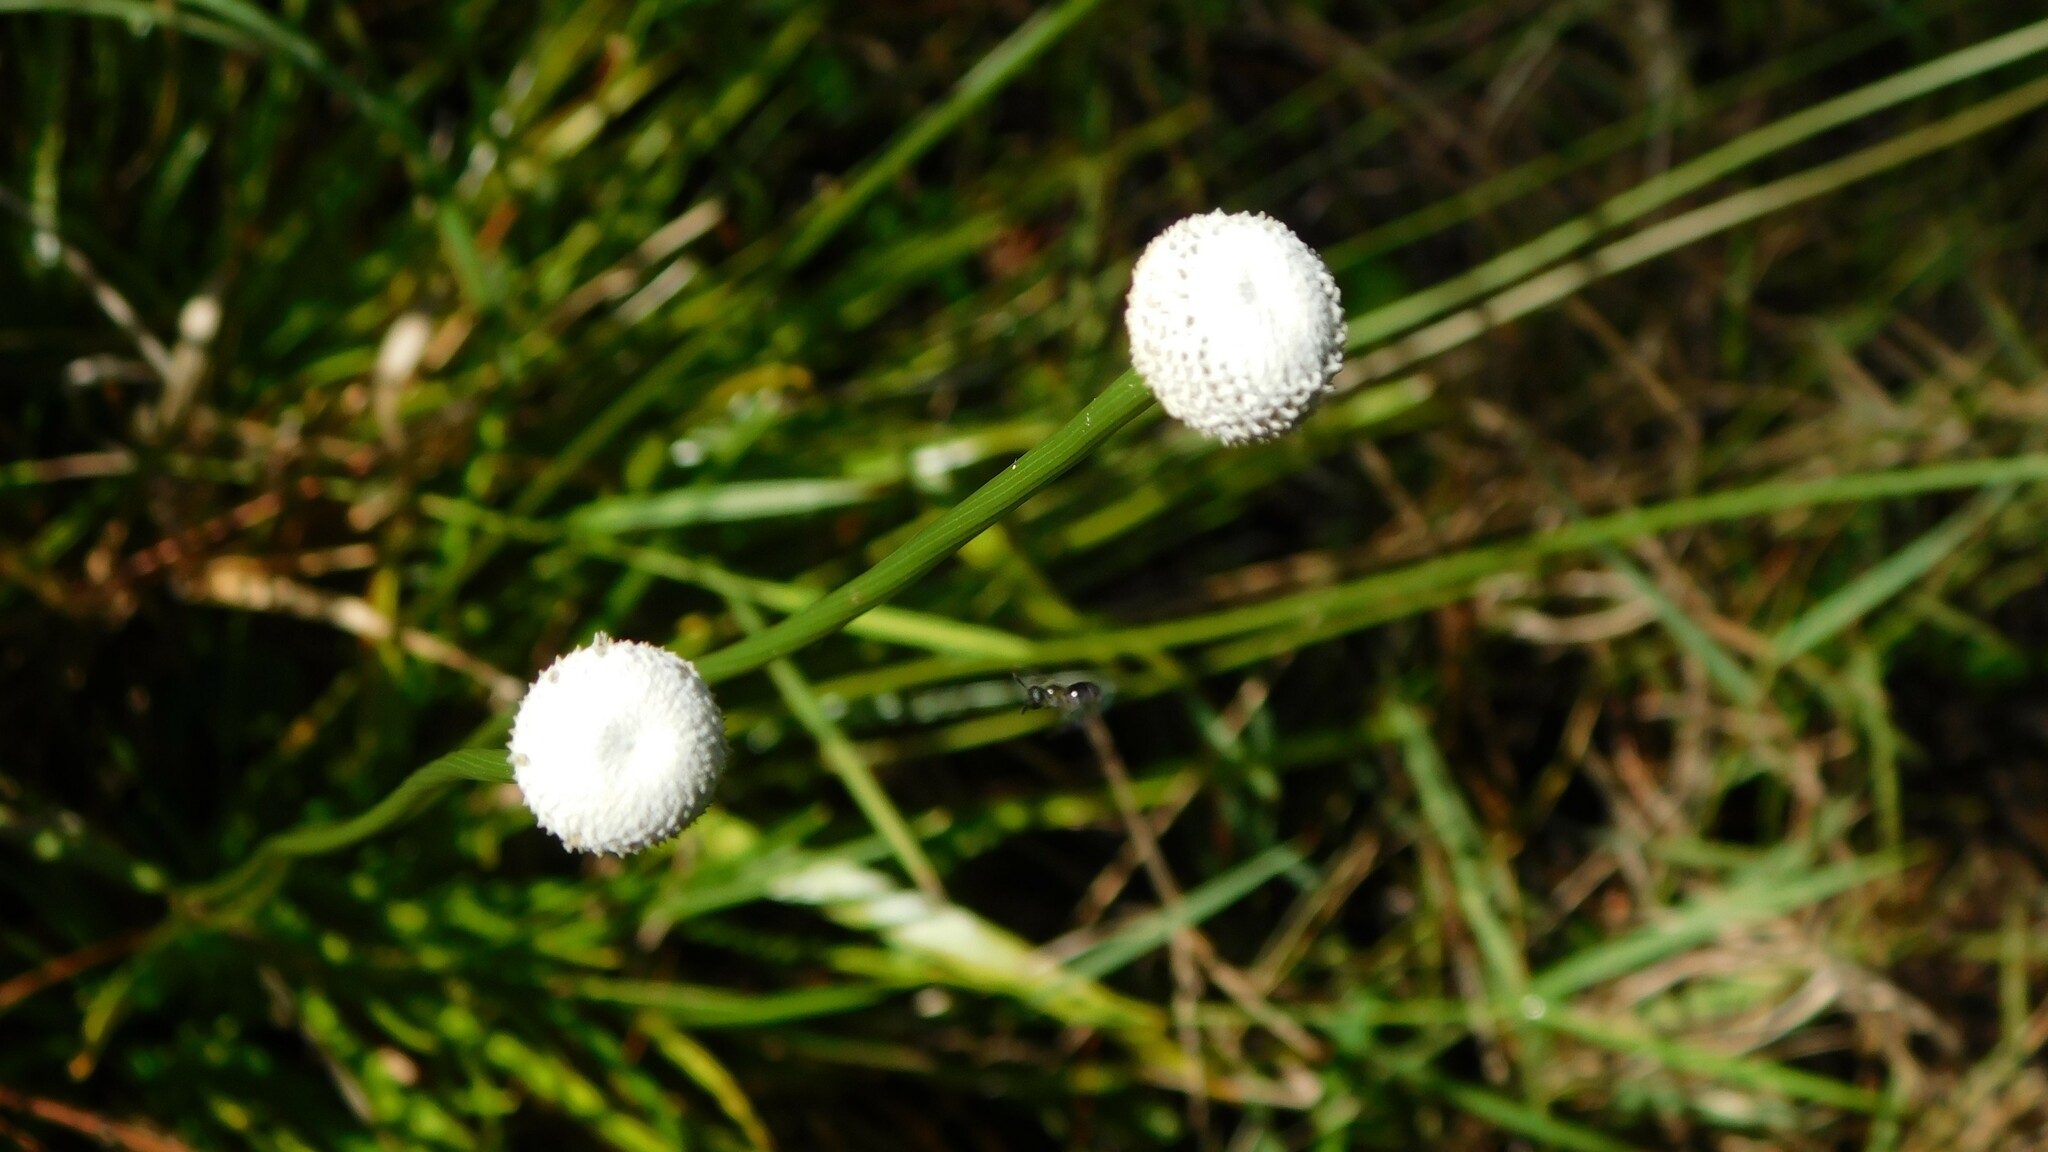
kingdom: Plantae
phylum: Tracheophyta
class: Liliopsida
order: Poales
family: Eriocaulaceae
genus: Eriocaulon
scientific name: Eriocaulon decangulare
